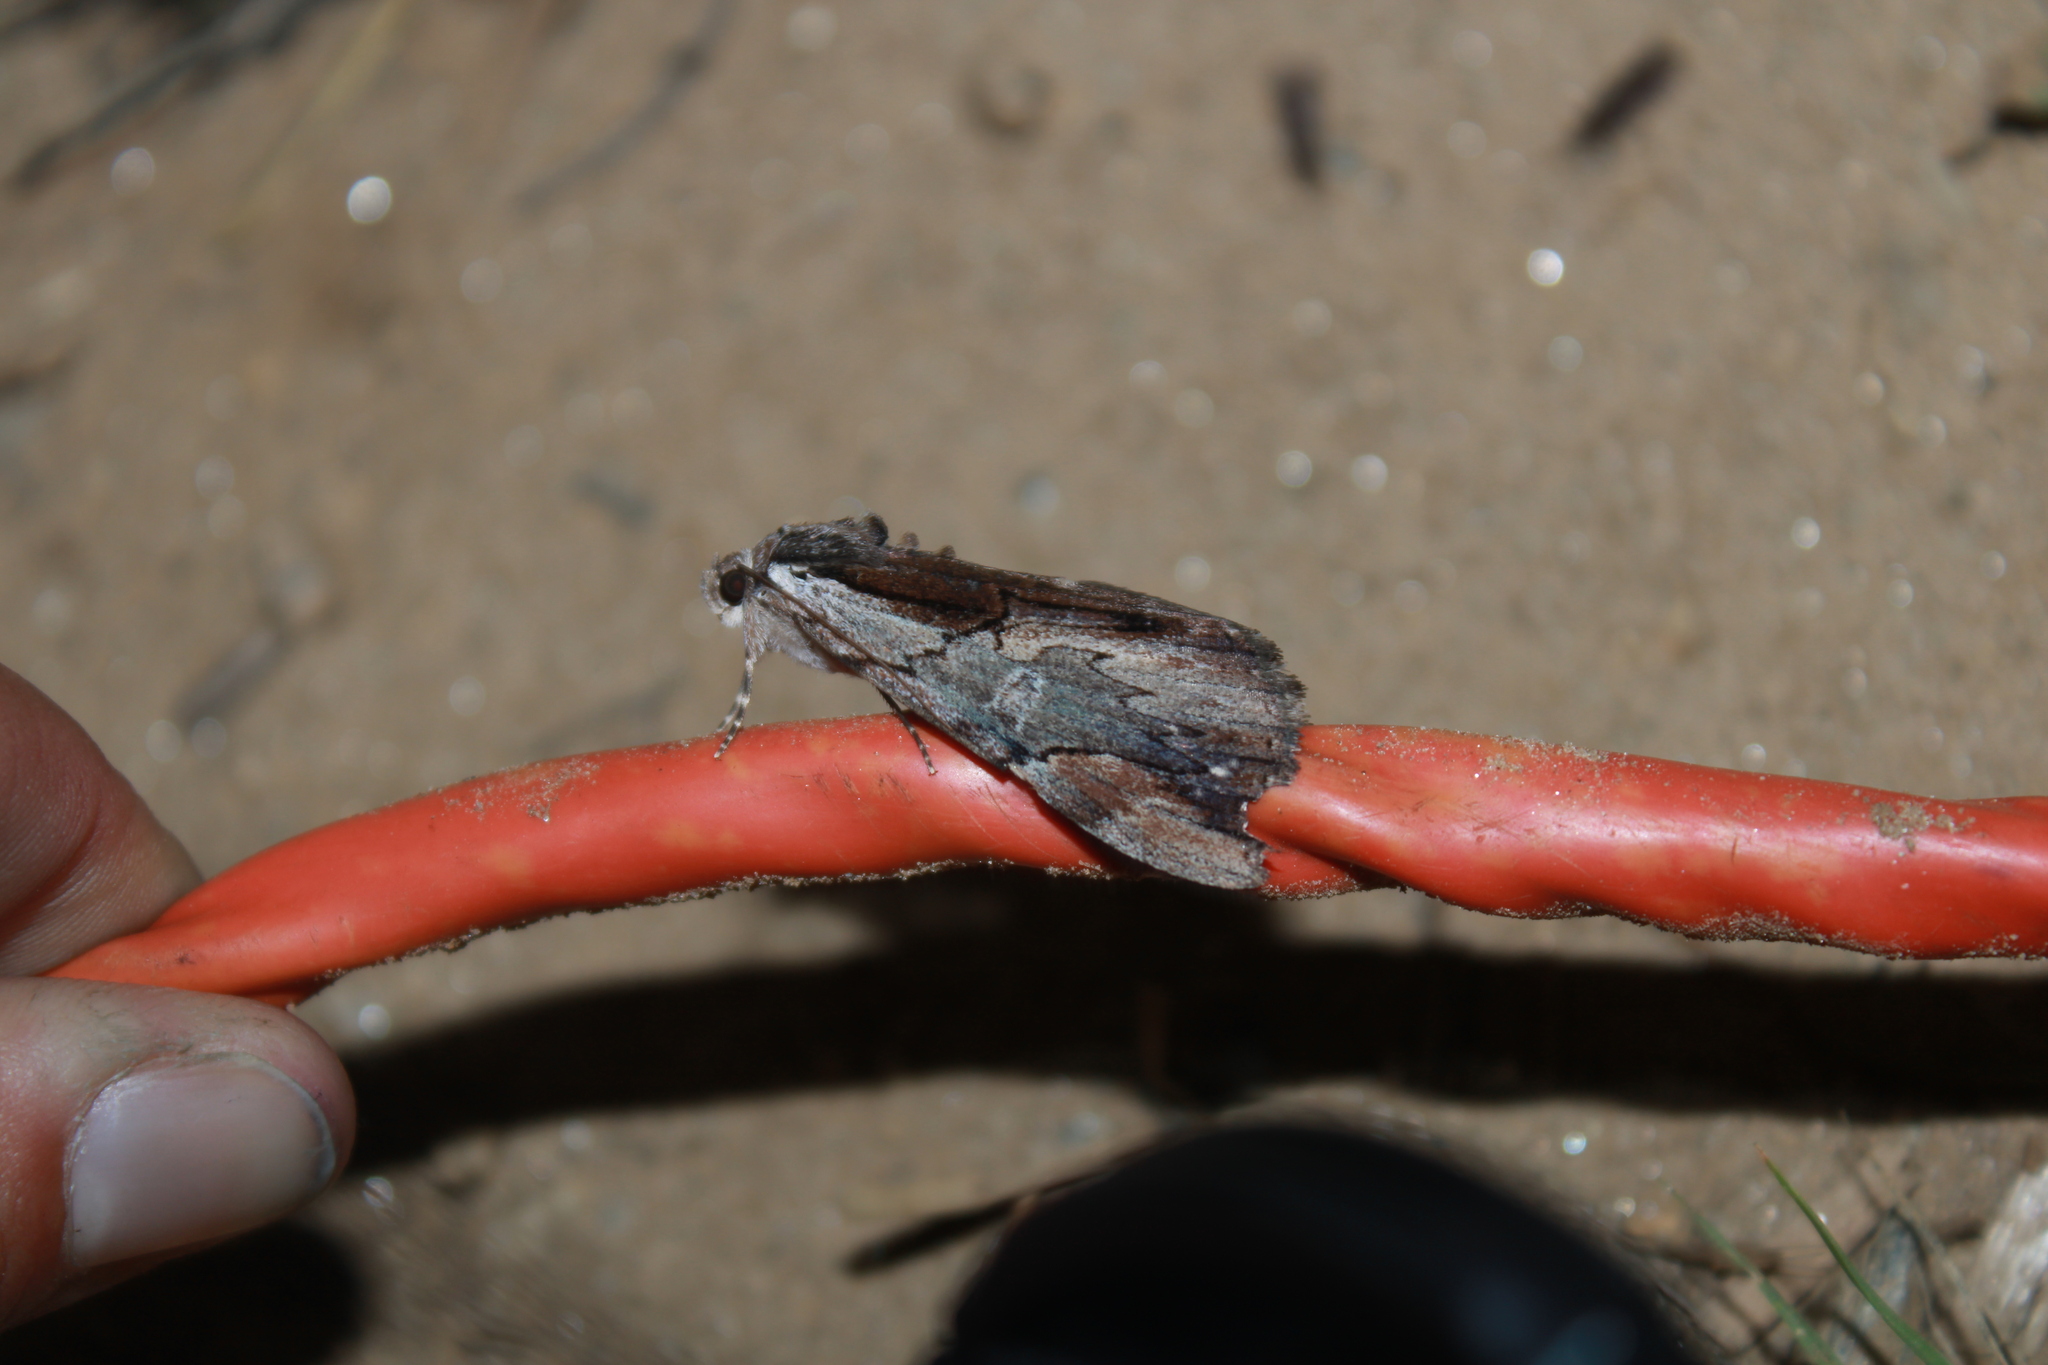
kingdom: Animalia
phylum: Arthropoda
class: Insecta
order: Lepidoptera
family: Erebidae
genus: Catocala
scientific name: Catocala ultronia
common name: Ultronia underwing
